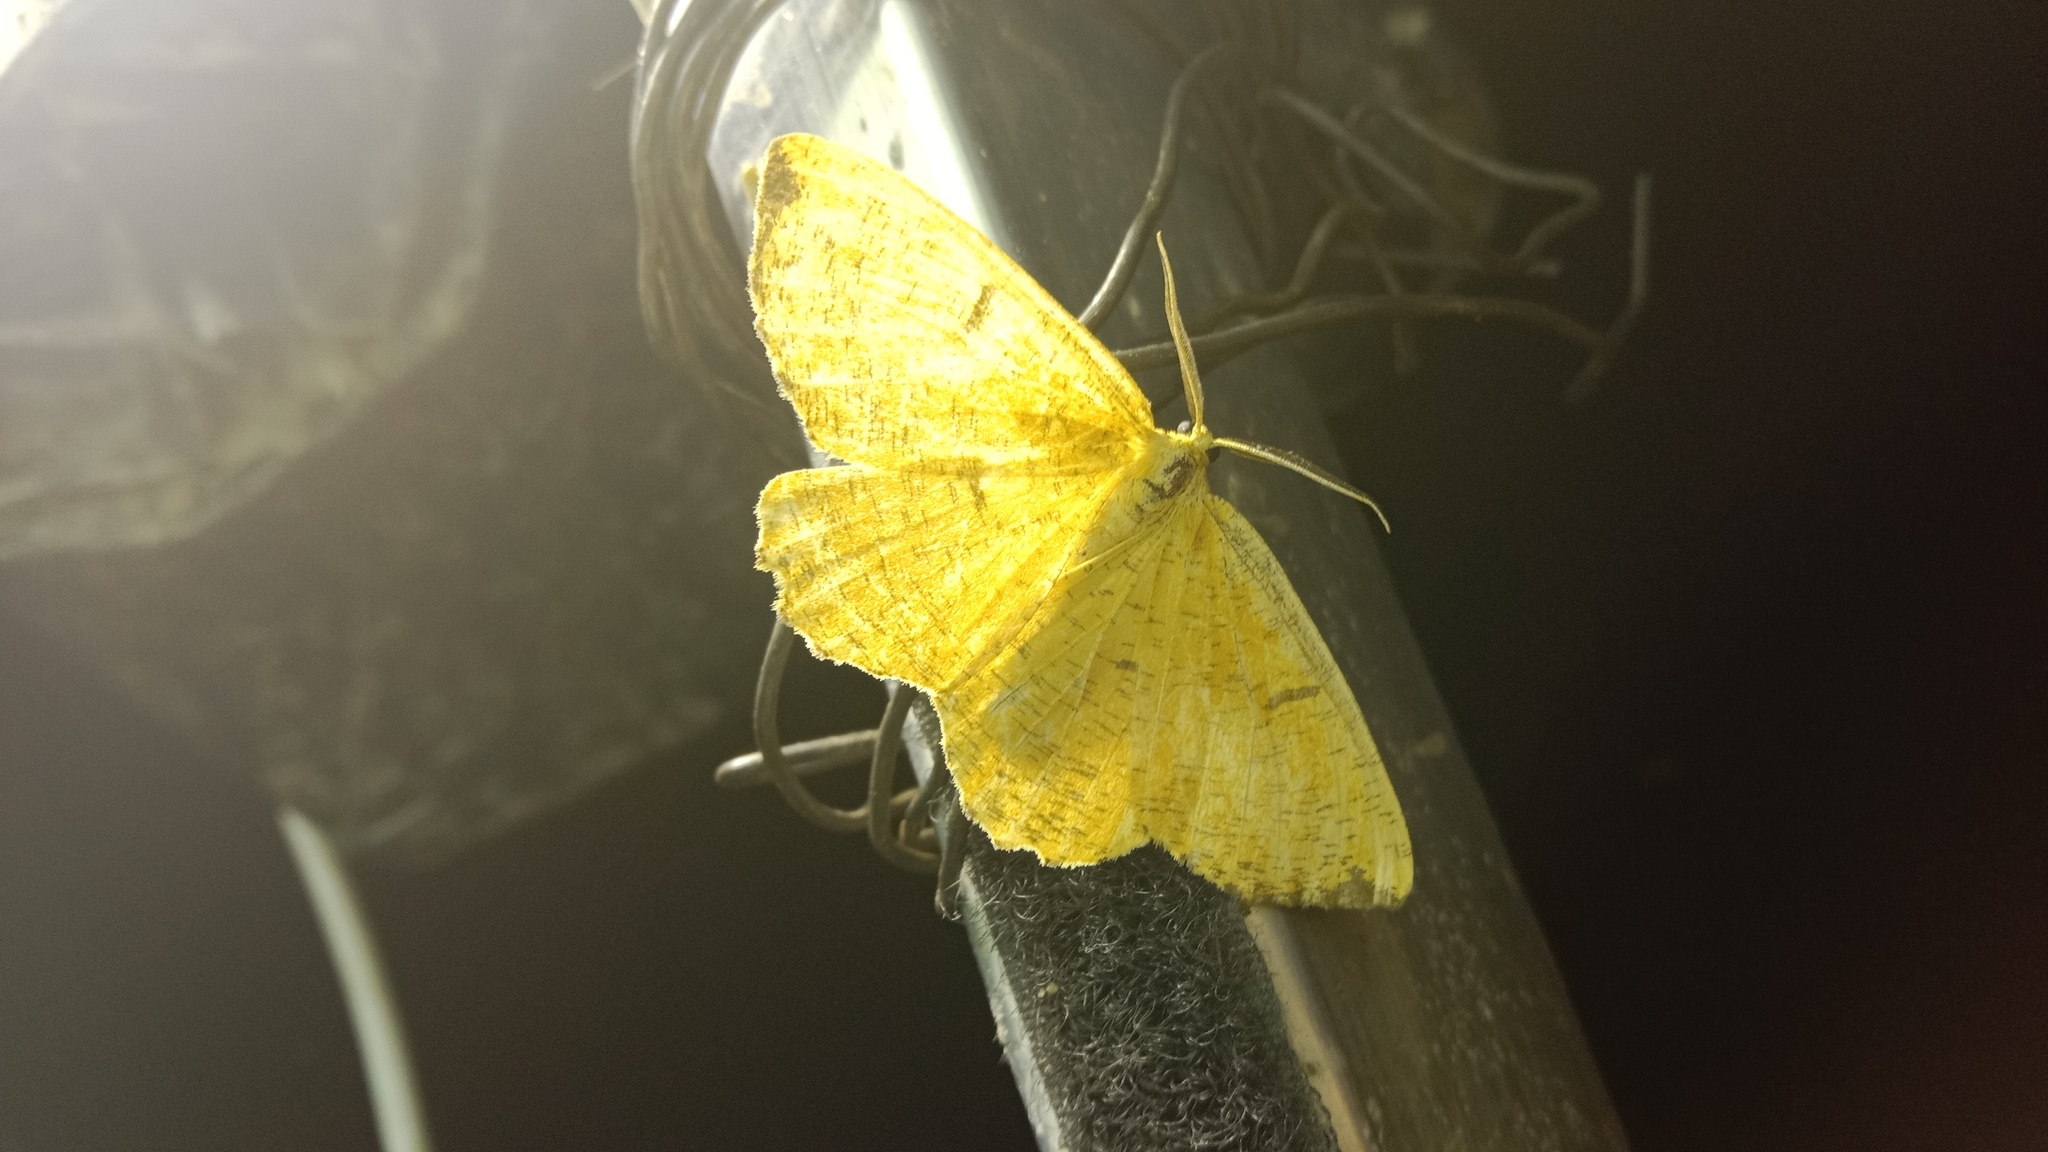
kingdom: Animalia
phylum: Arthropoda
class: Insecta
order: Lepidoptera
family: Geometridae
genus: Angerona
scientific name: Angerona prunaria
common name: Orange moth
